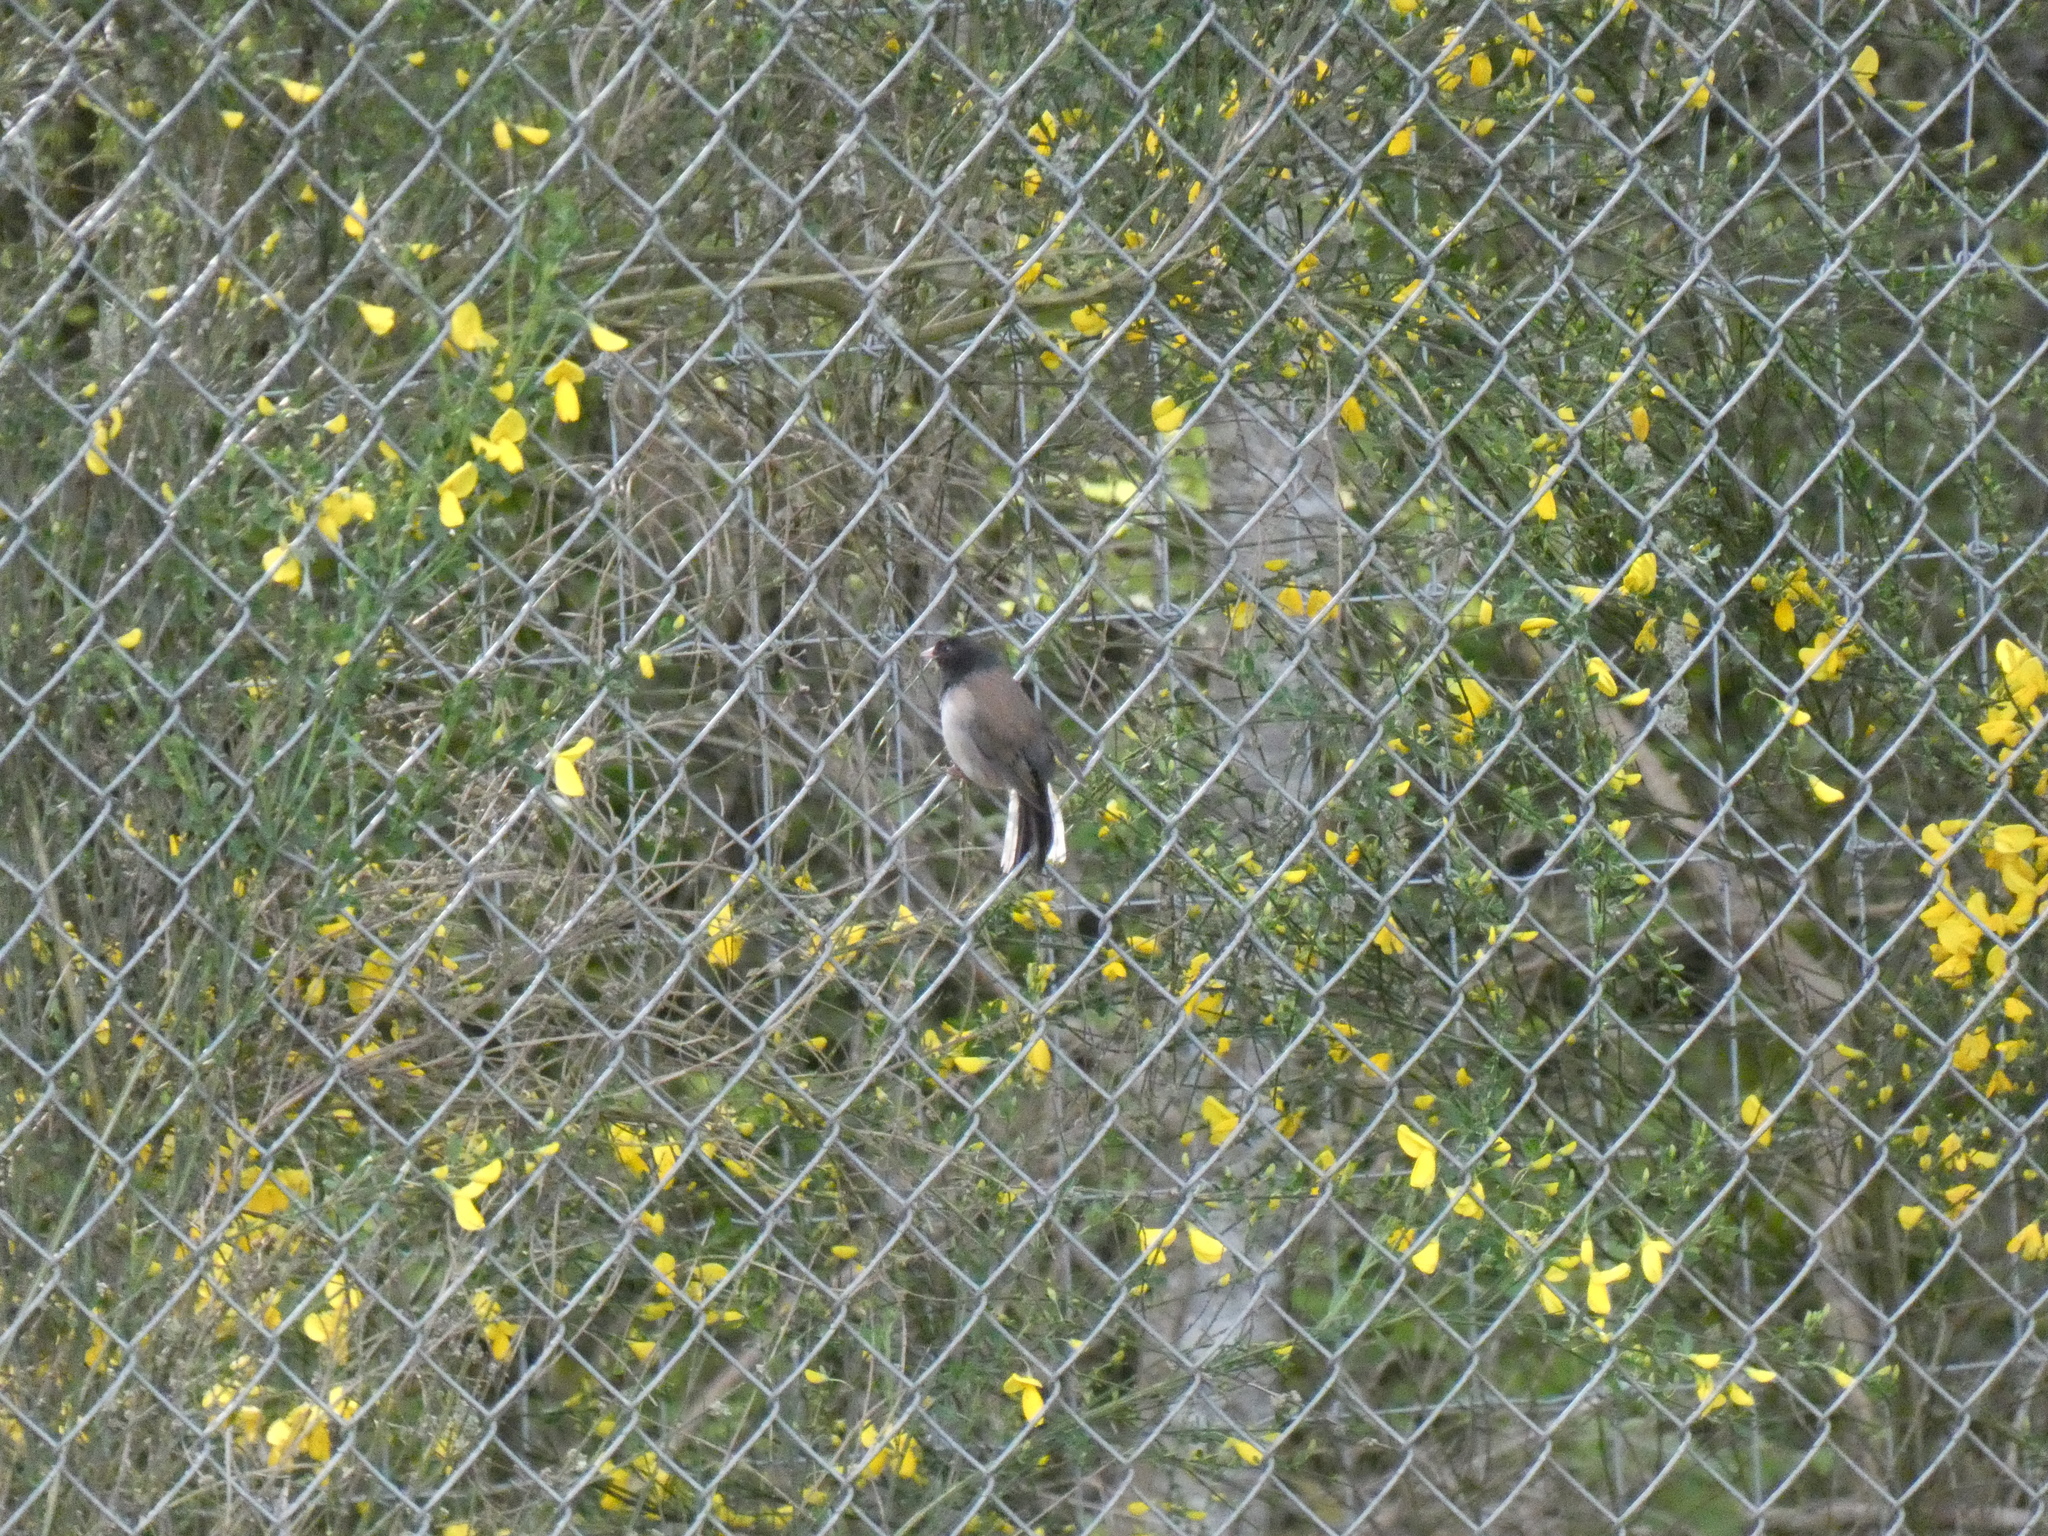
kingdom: Animalia
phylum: Chordata
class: Aves
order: Passeriformes
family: Passerellidae
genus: Junco
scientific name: Junco hyemalis
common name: Dark-eyed junco
